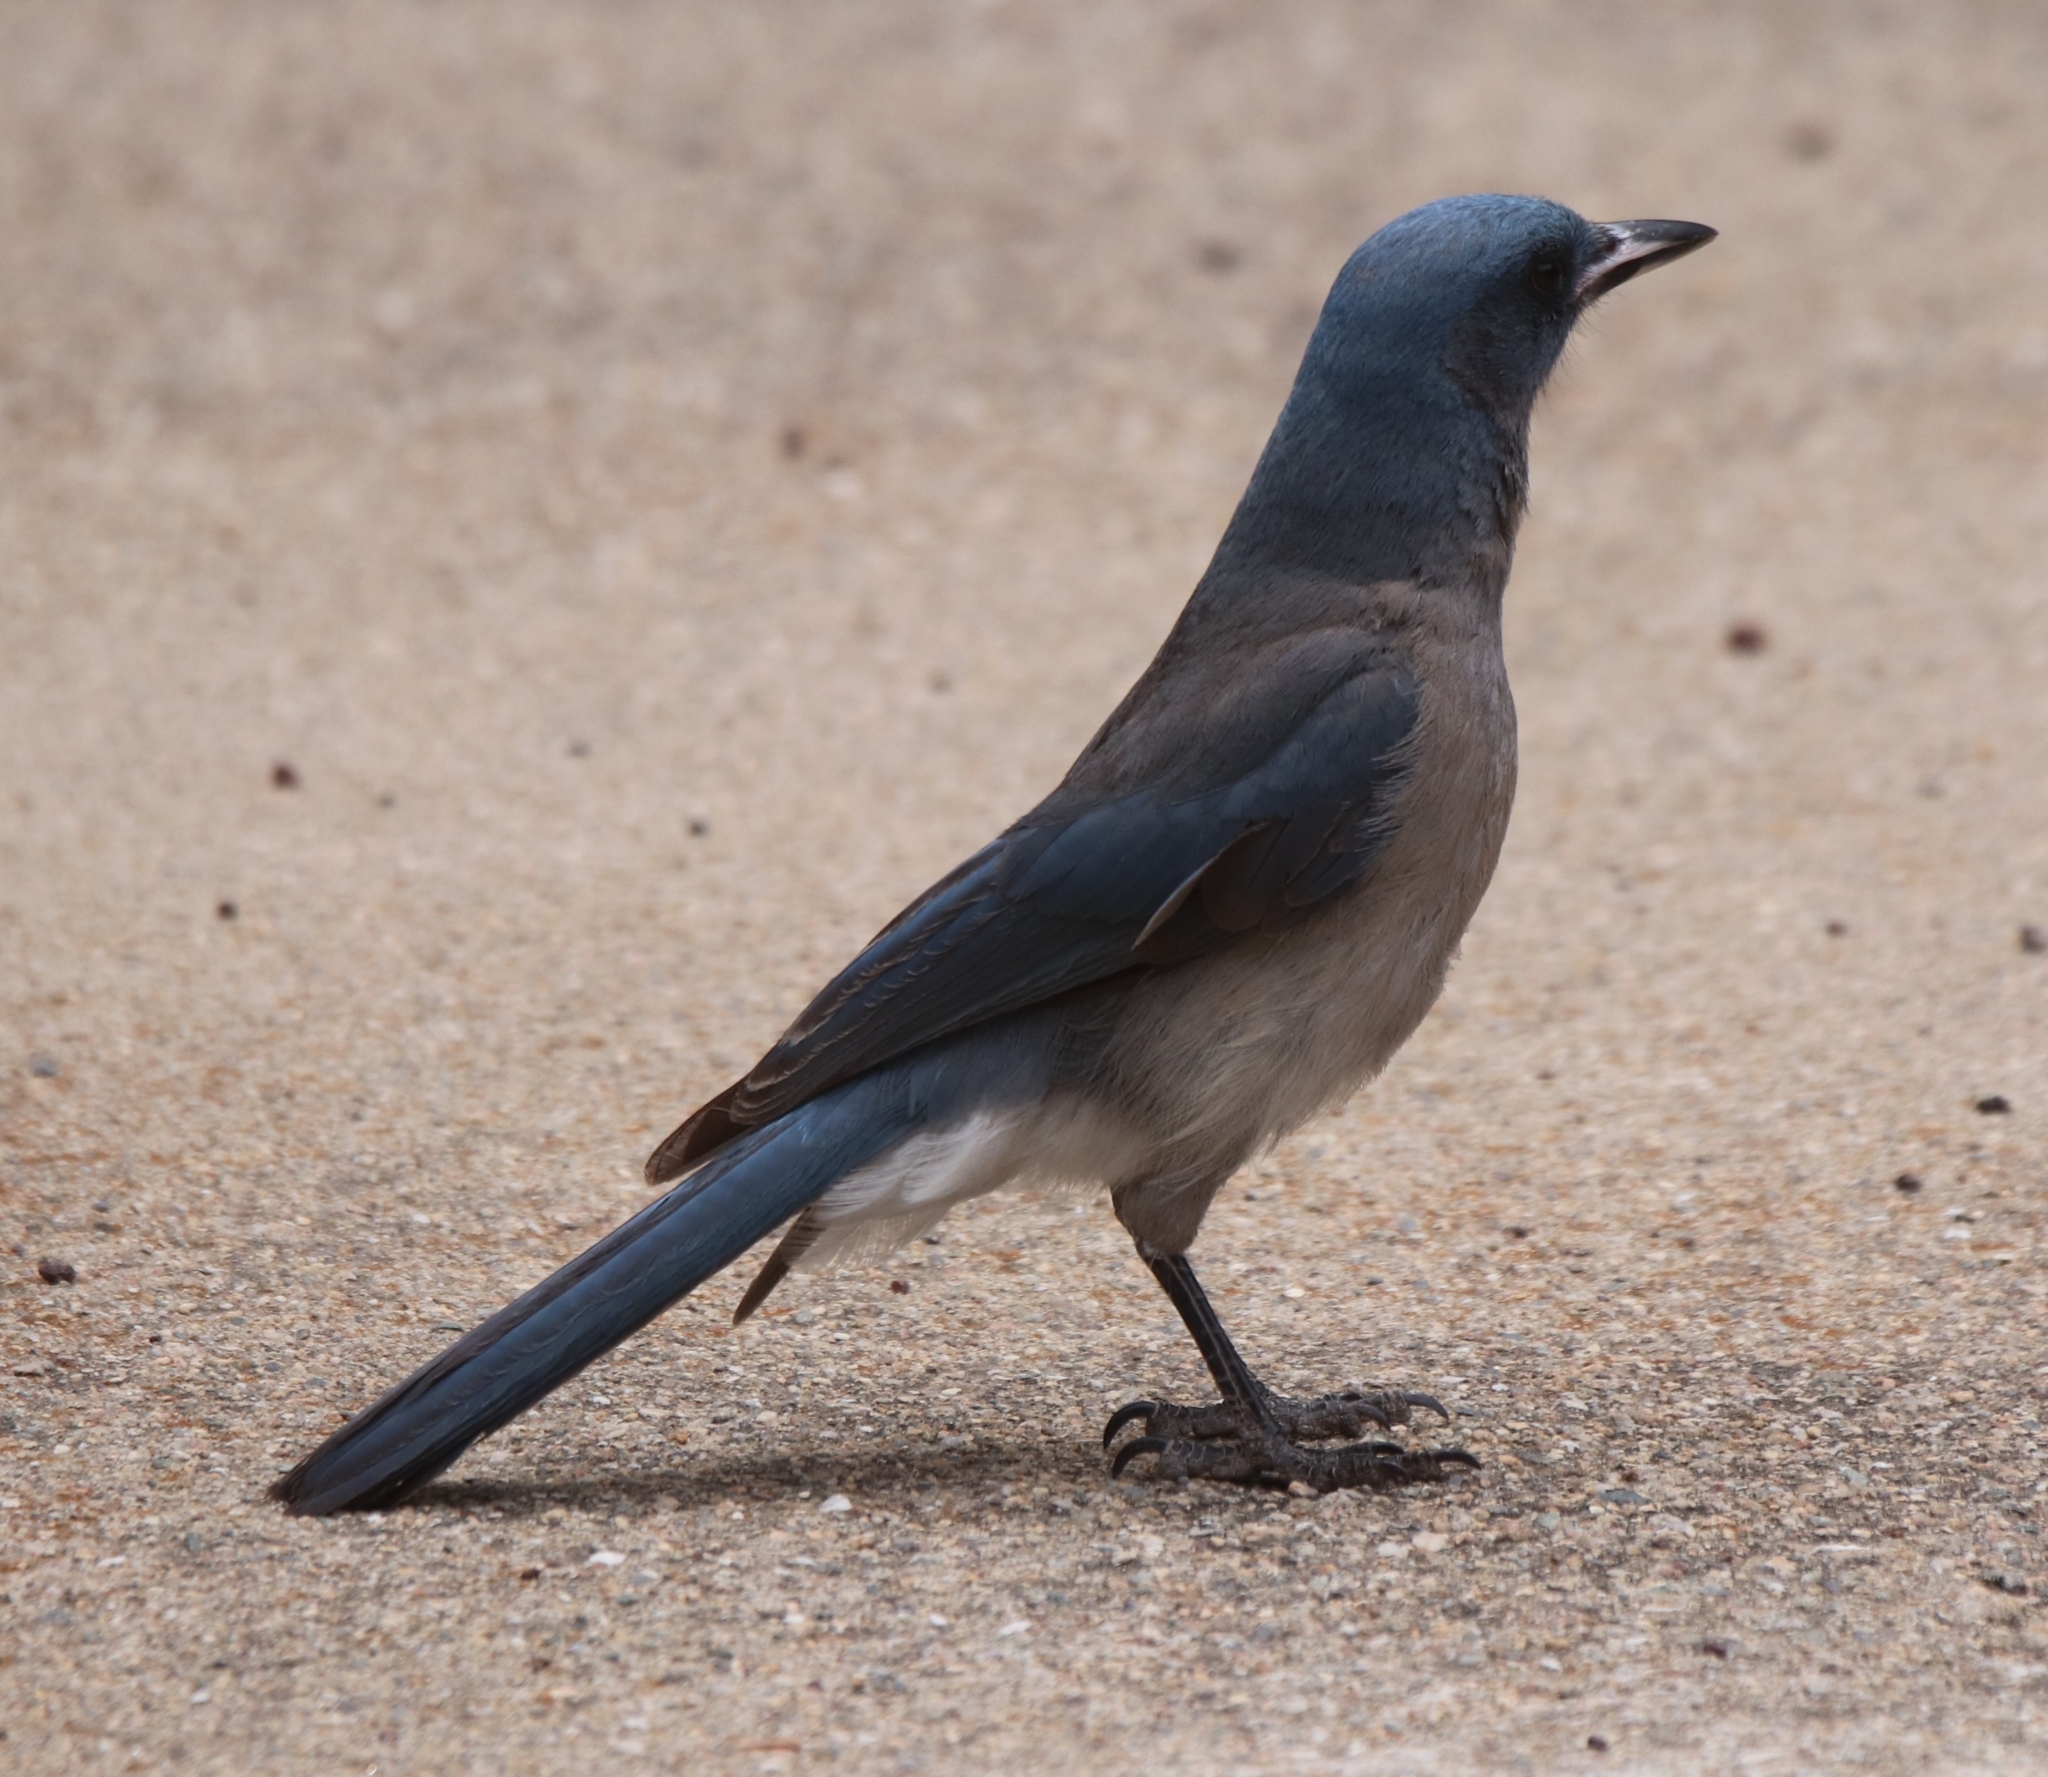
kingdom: Animalia
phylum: Chordata
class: Aves
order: Passeriformes
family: Corvidae
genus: Aphelocoma
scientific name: Aphelocoma wollweberi
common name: Mexican jay
